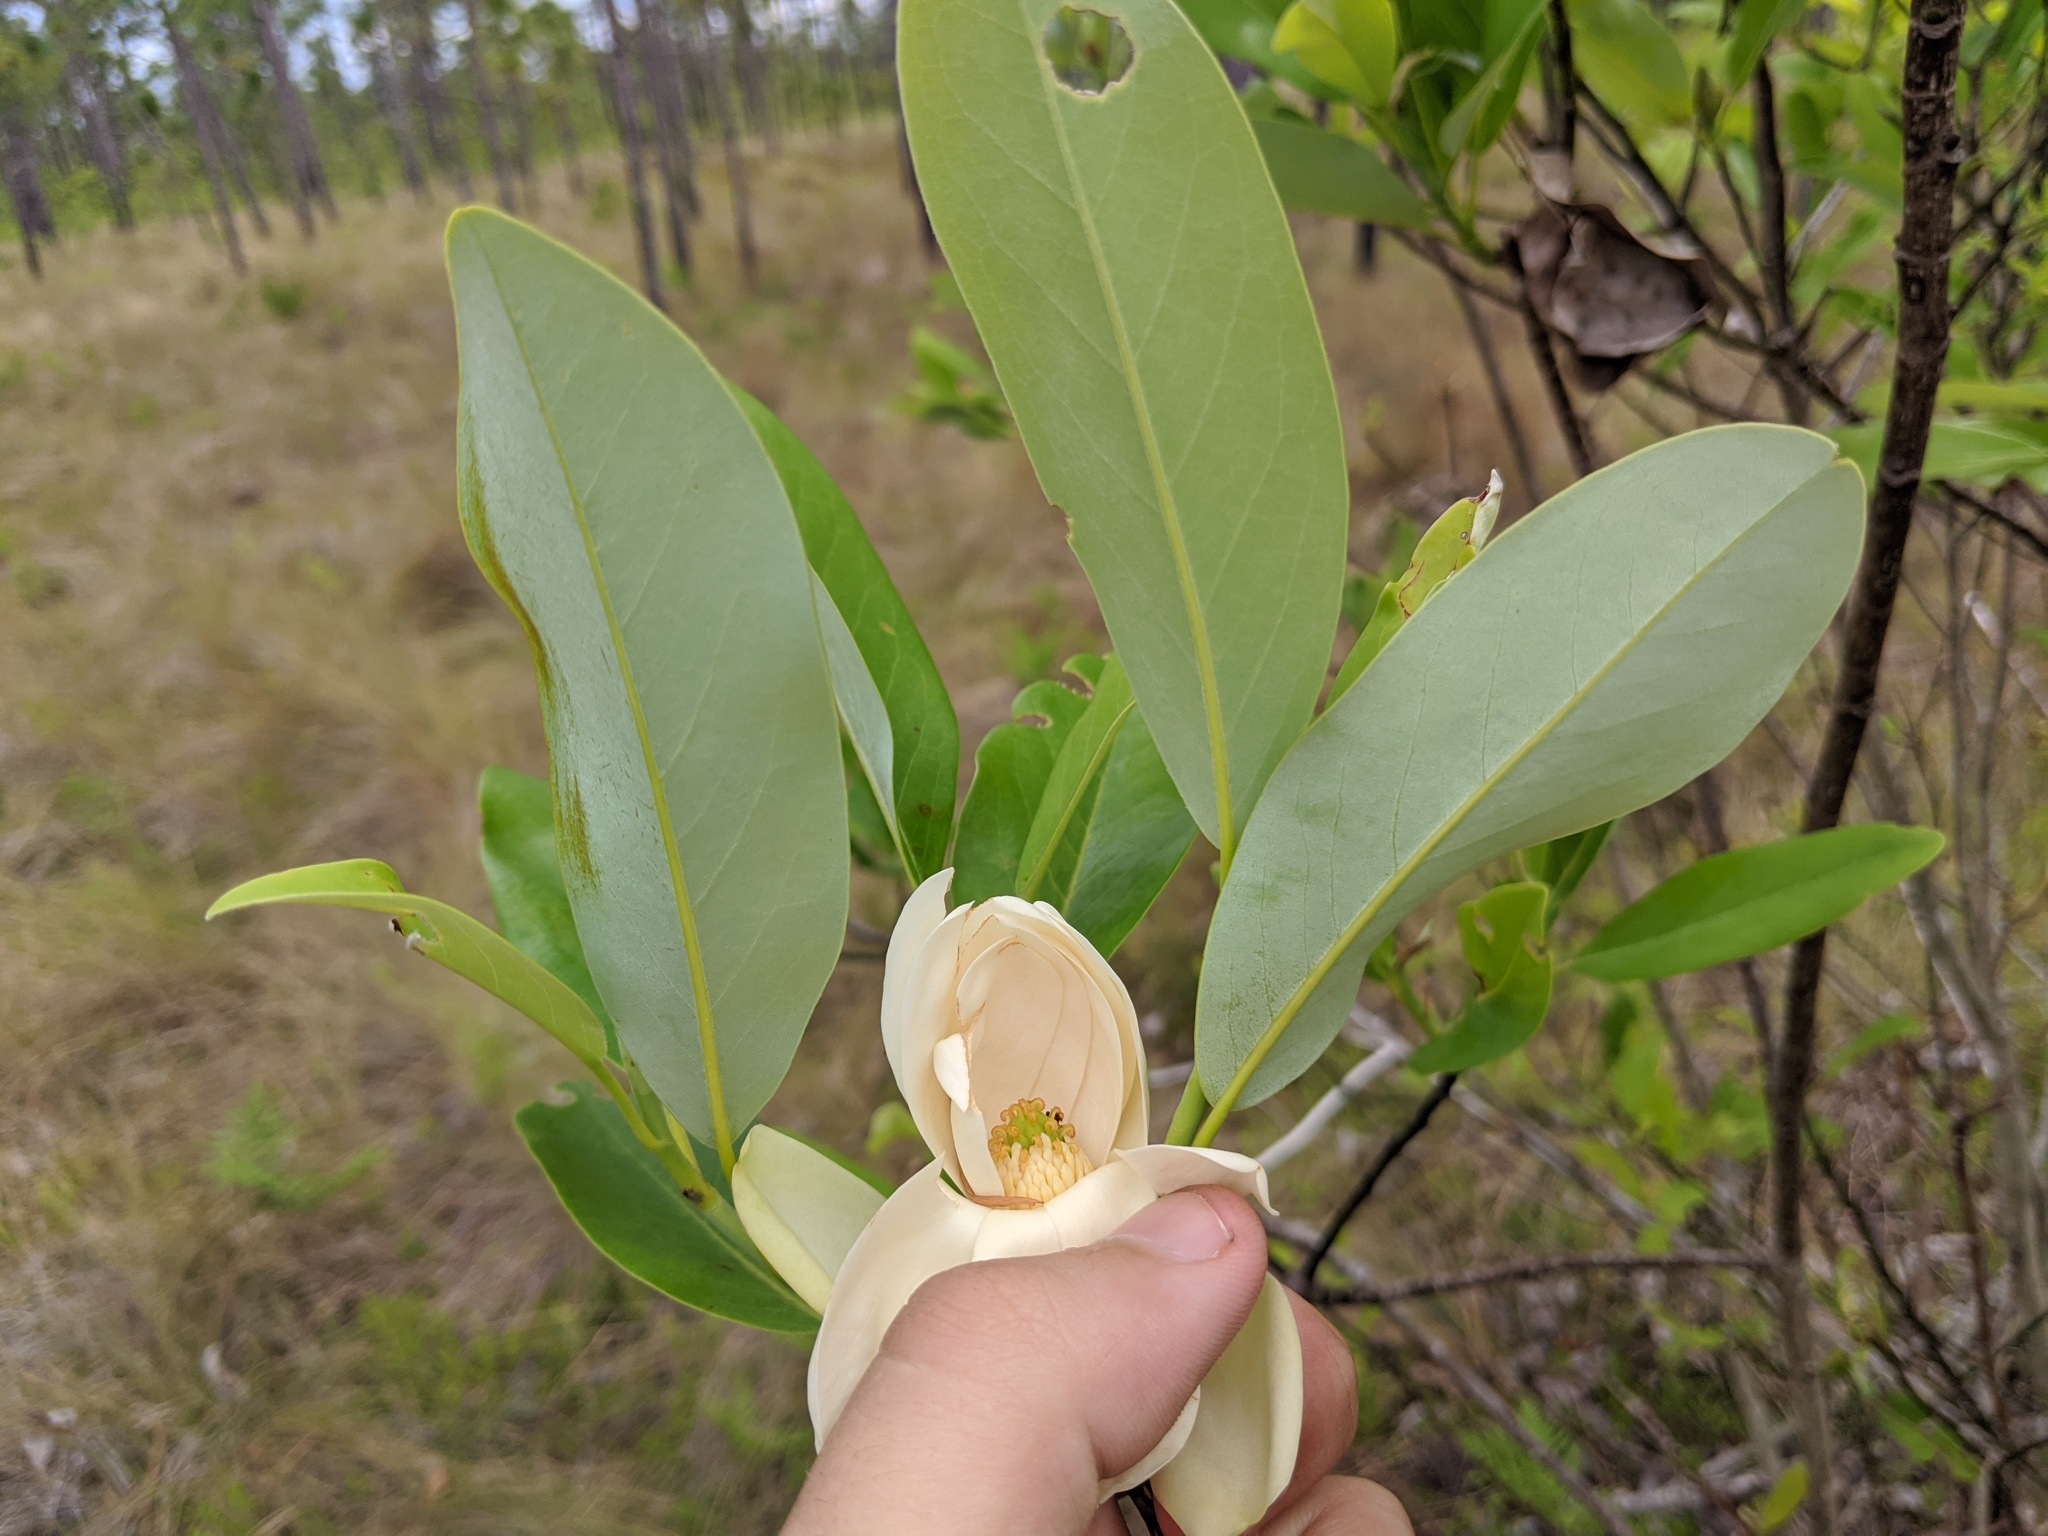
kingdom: Plantae
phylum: Tracheophyta
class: Magnoliopsida
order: Magnoliales
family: Magnoliaceae
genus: Magnolia
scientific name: Magnolia virginiana
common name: Swamp bay
